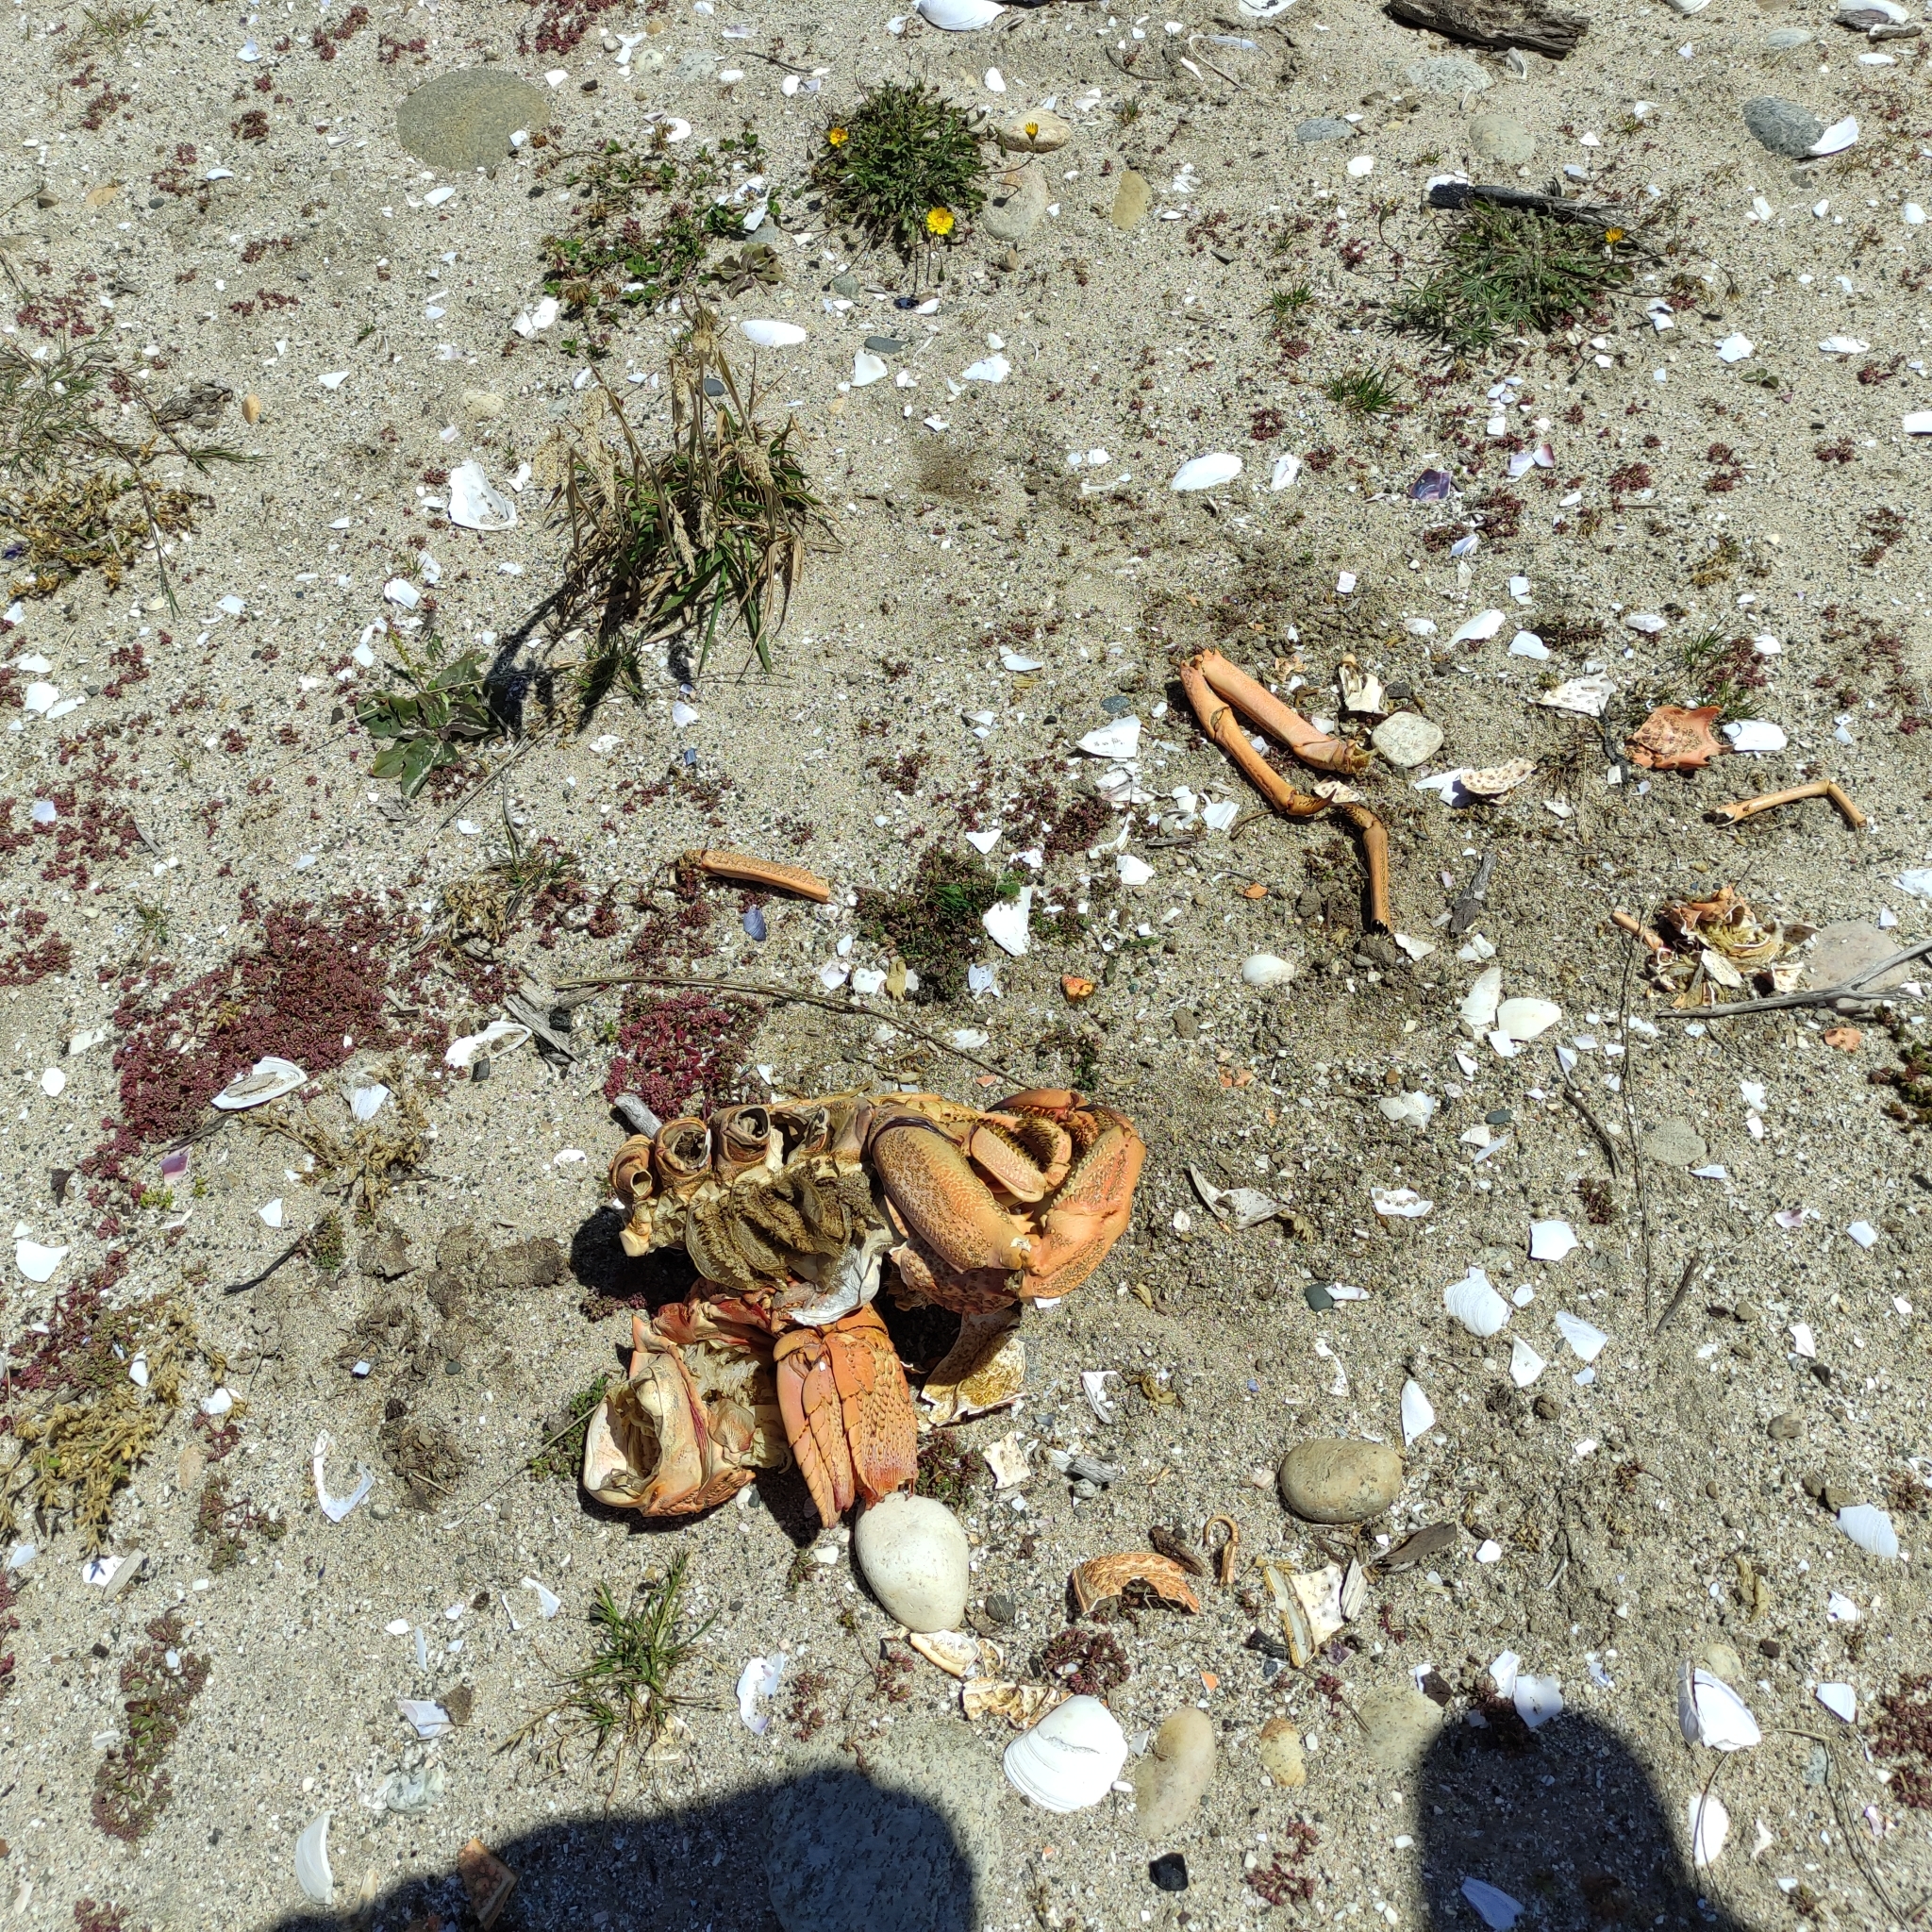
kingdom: Animalia
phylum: Arthropoda
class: Malacostraca
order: Decapoda
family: Palinuridae
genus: Jasus
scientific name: Jasus edwardsii
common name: Red rock lobster
